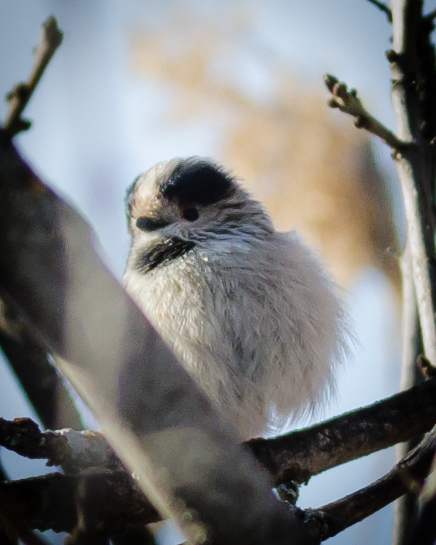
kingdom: Animalia
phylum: Chordata
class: Aves
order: Passeriformes
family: Aegithalidae
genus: Aegithalos
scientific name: Aegithalos caudatus
